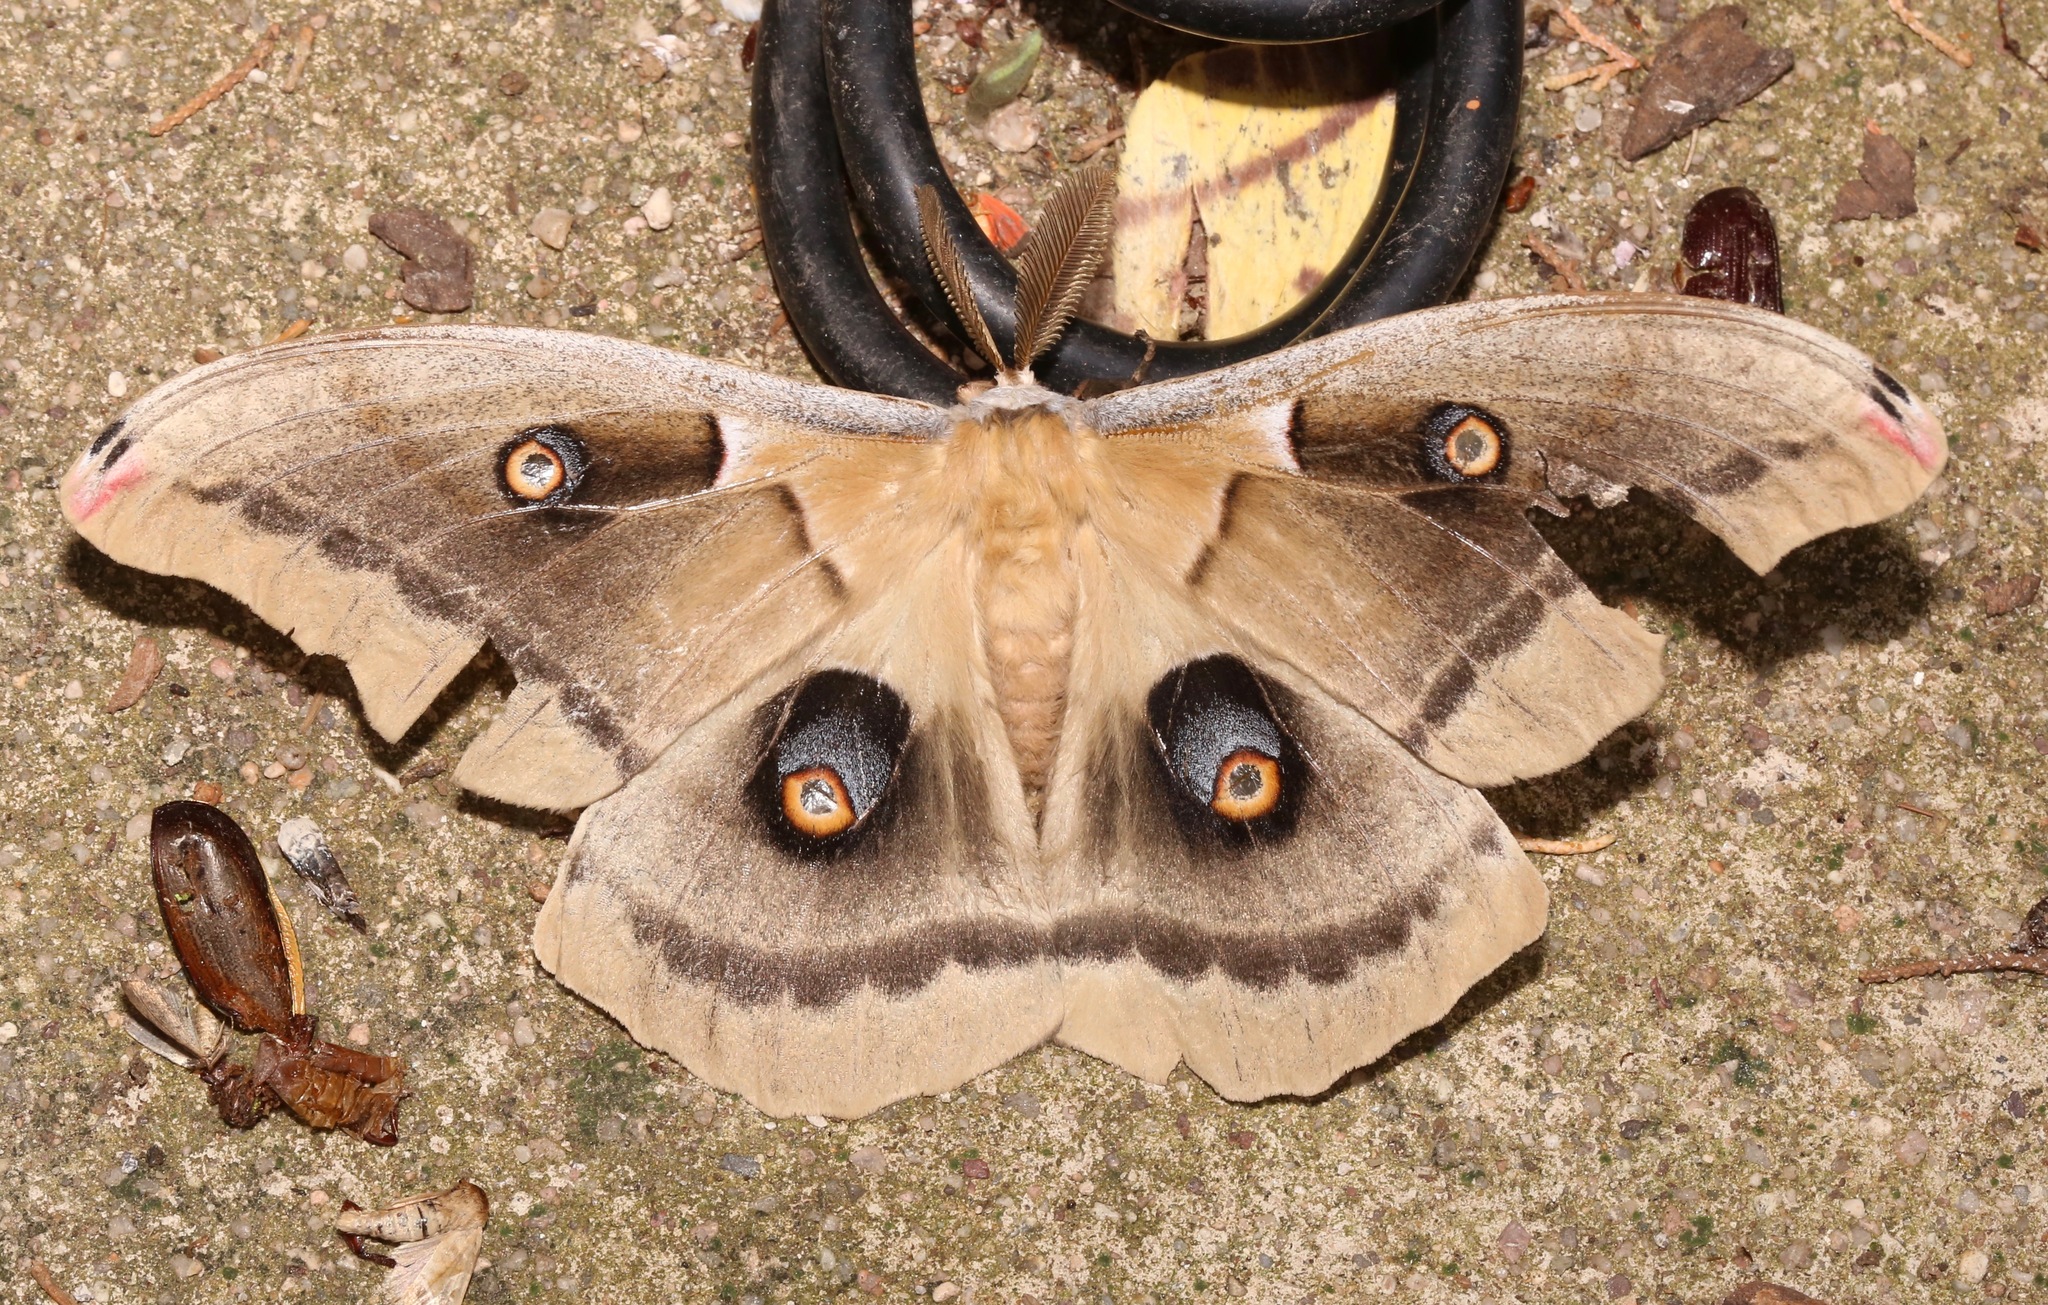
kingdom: Animalia
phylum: Arthropoda
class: Insecta
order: Lepidoptera
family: Saturniidae
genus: Antheraea
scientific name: Antheraea oculea
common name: Arizona polyphemus moth
